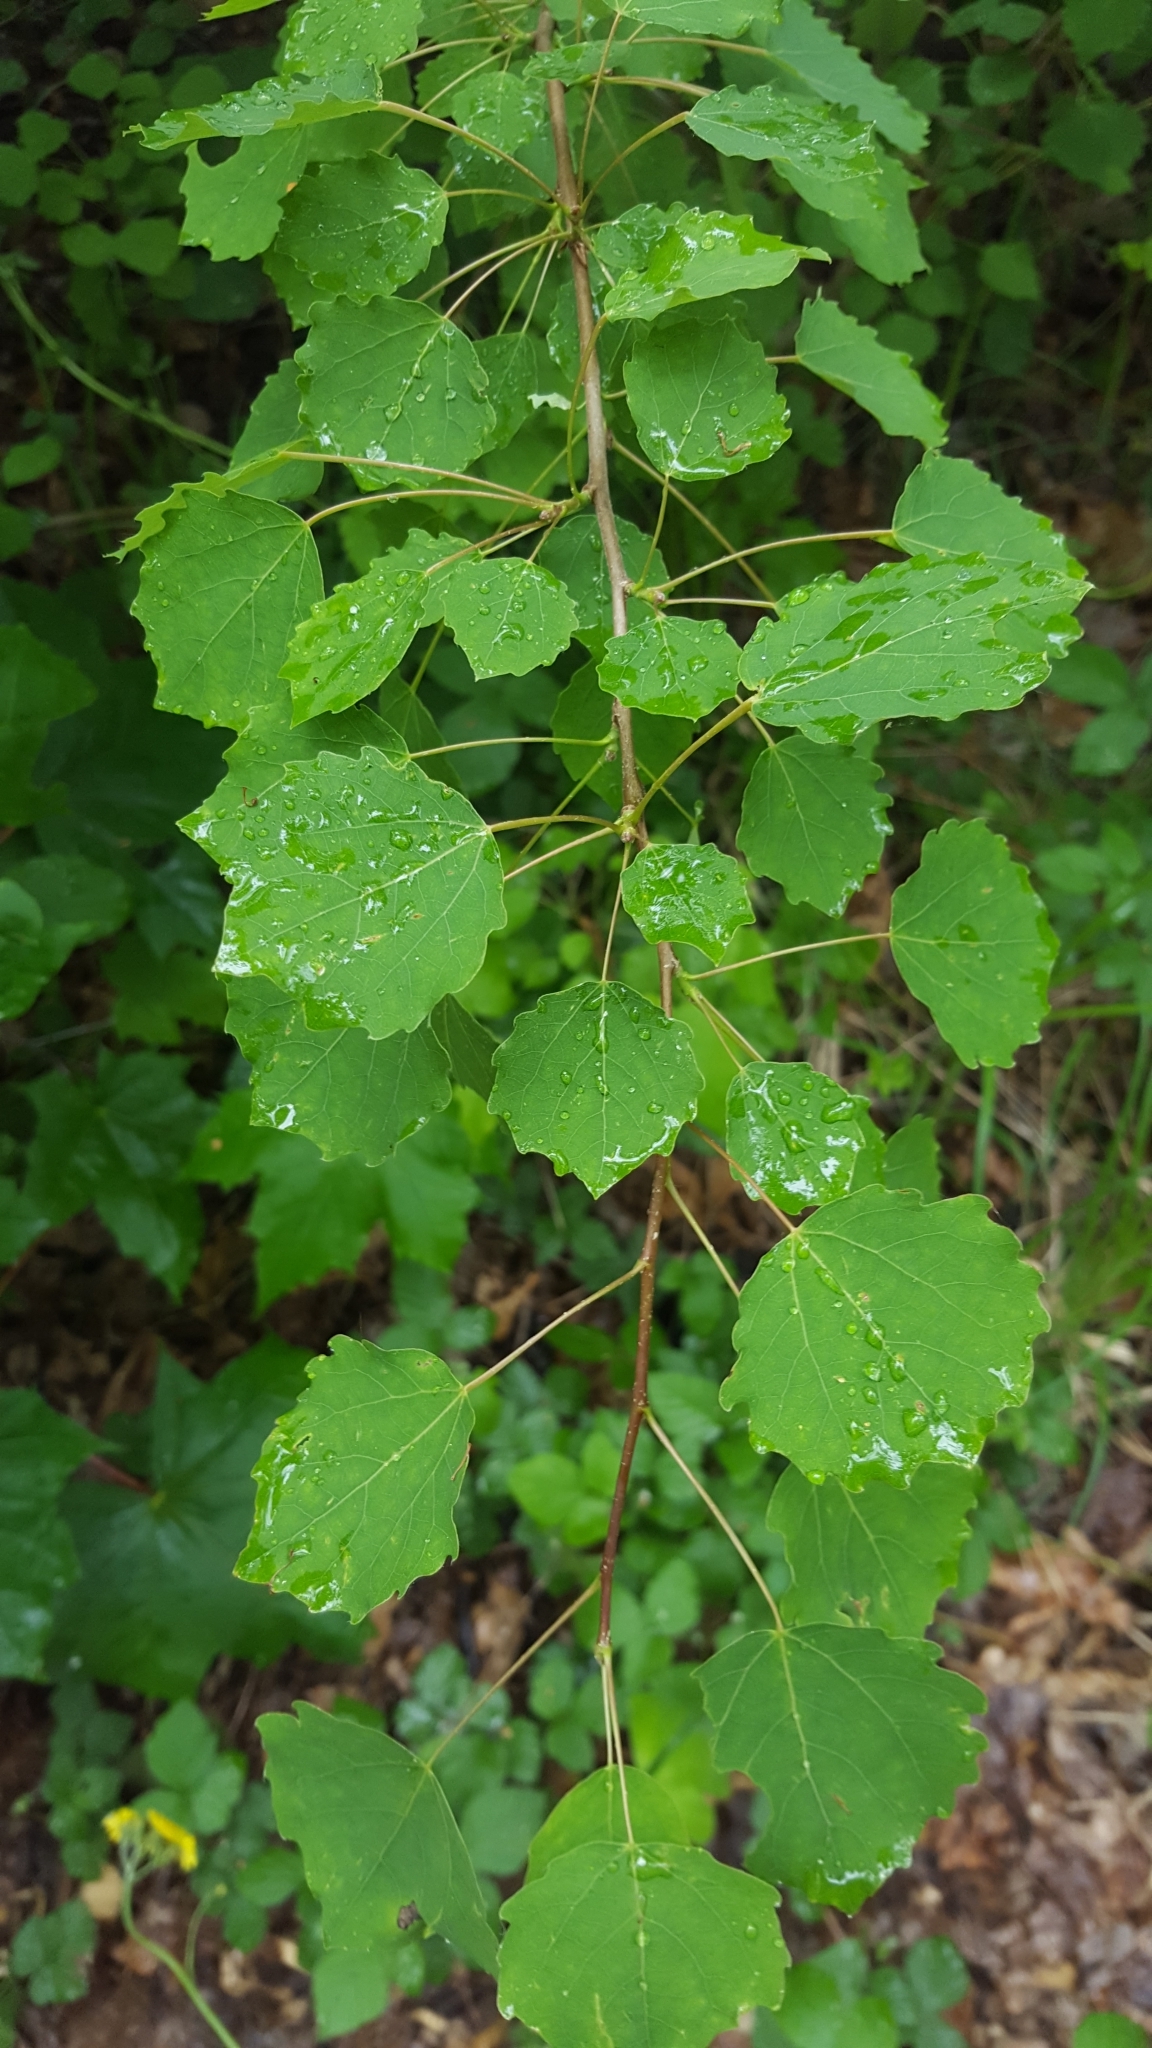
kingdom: Plantae
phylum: Tracheophyta
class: Magnoliopsida
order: Malpighiales
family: Salicaceae
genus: Populus
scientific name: Populus tremula
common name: European aspen
